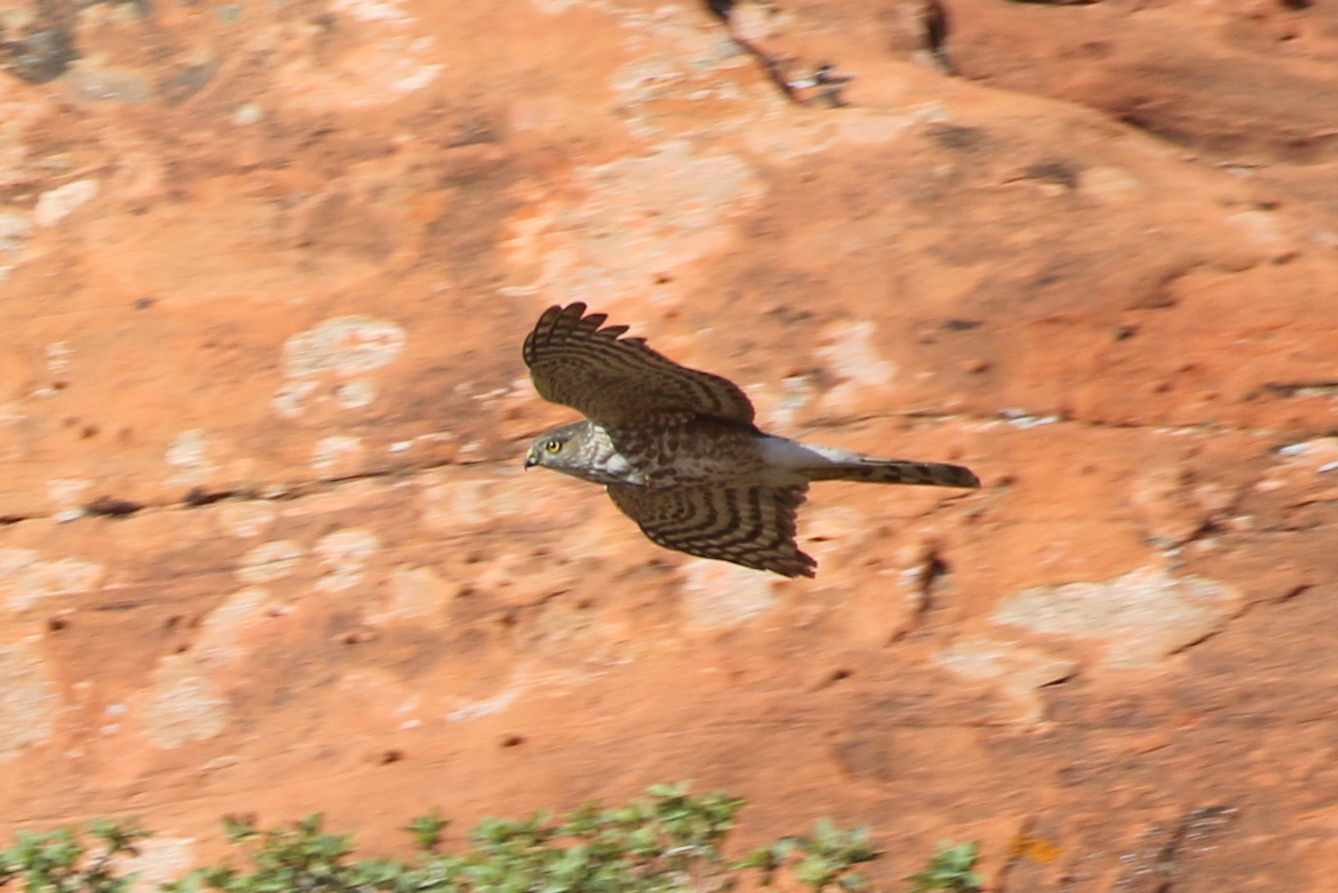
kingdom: Animalia
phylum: Chordata
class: Aves
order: Accipitriformes
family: Accipitridae
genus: Accipiter
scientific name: Accipiter striatus
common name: Sharp-shinned hawk
